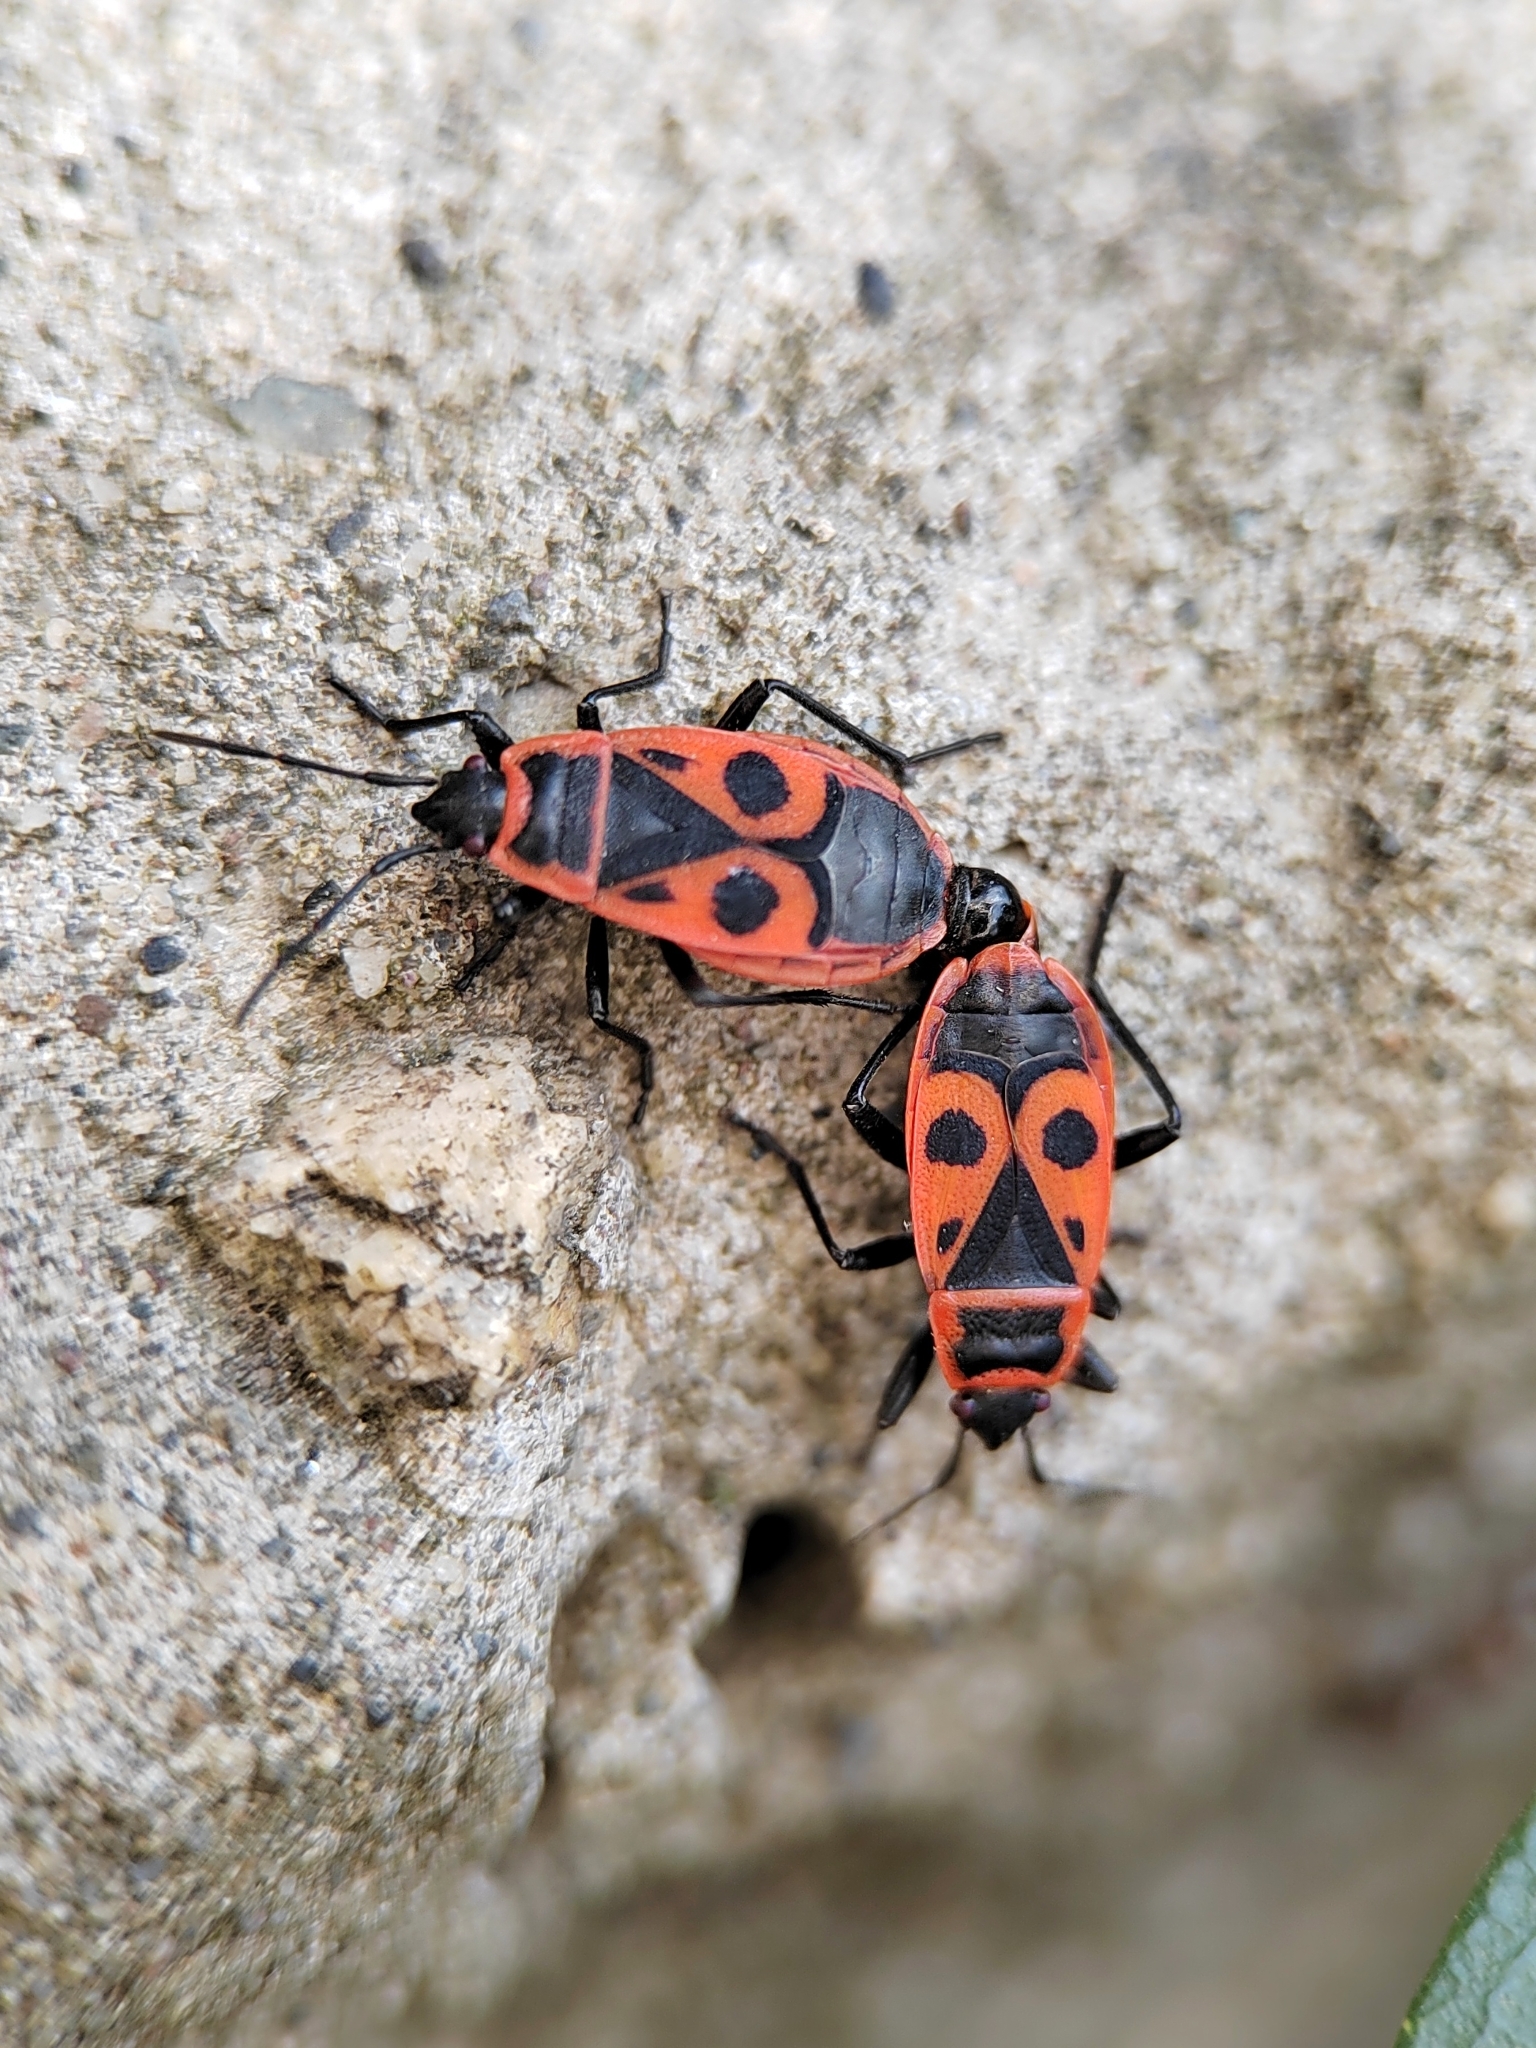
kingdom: Animalia
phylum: Arthropoda
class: Insecta
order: Hemiptera
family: Pyrrhocoridae
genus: Pyrrhocoris
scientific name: Pyrrhocoris apterus
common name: Firebug
